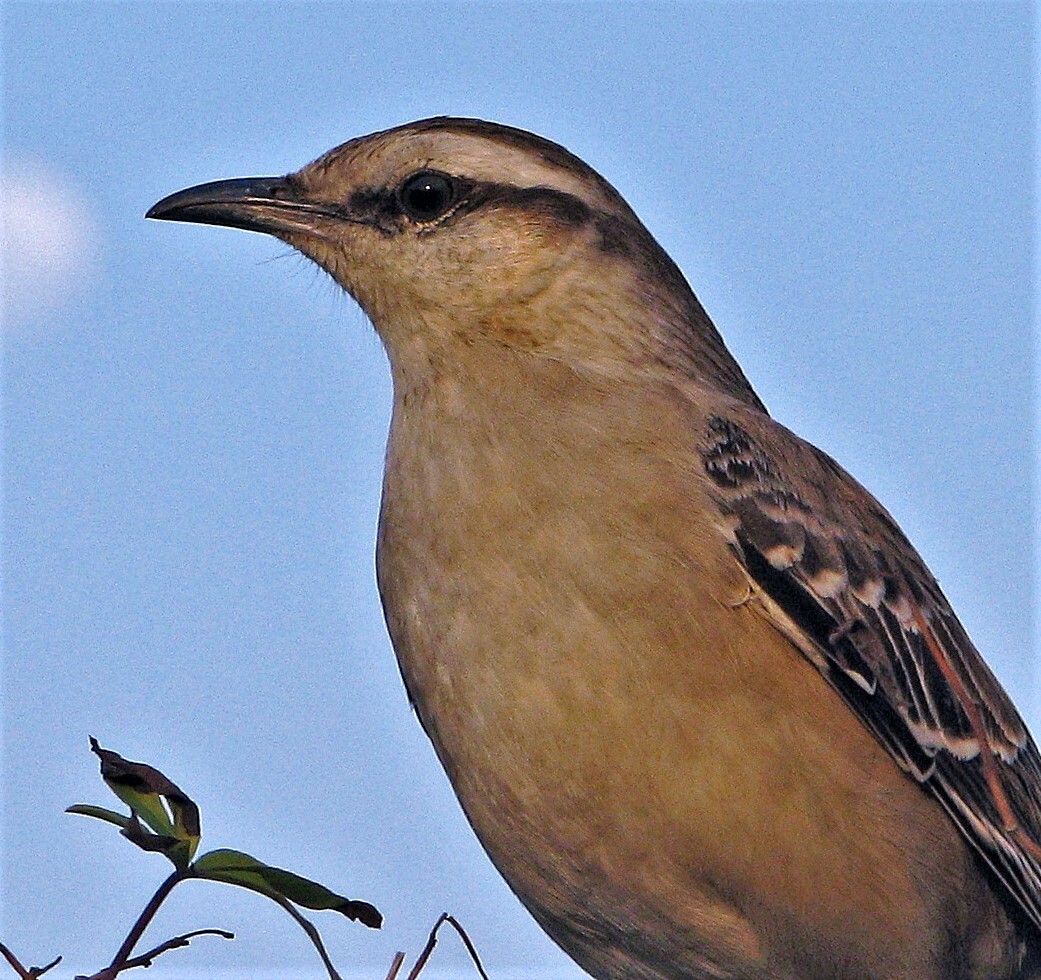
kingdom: Animalia
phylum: Chordata
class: Aves
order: Passeriformes
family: Mimidae
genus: Mimus
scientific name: Mimus saturninus
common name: Chalk-browed mockingbird
